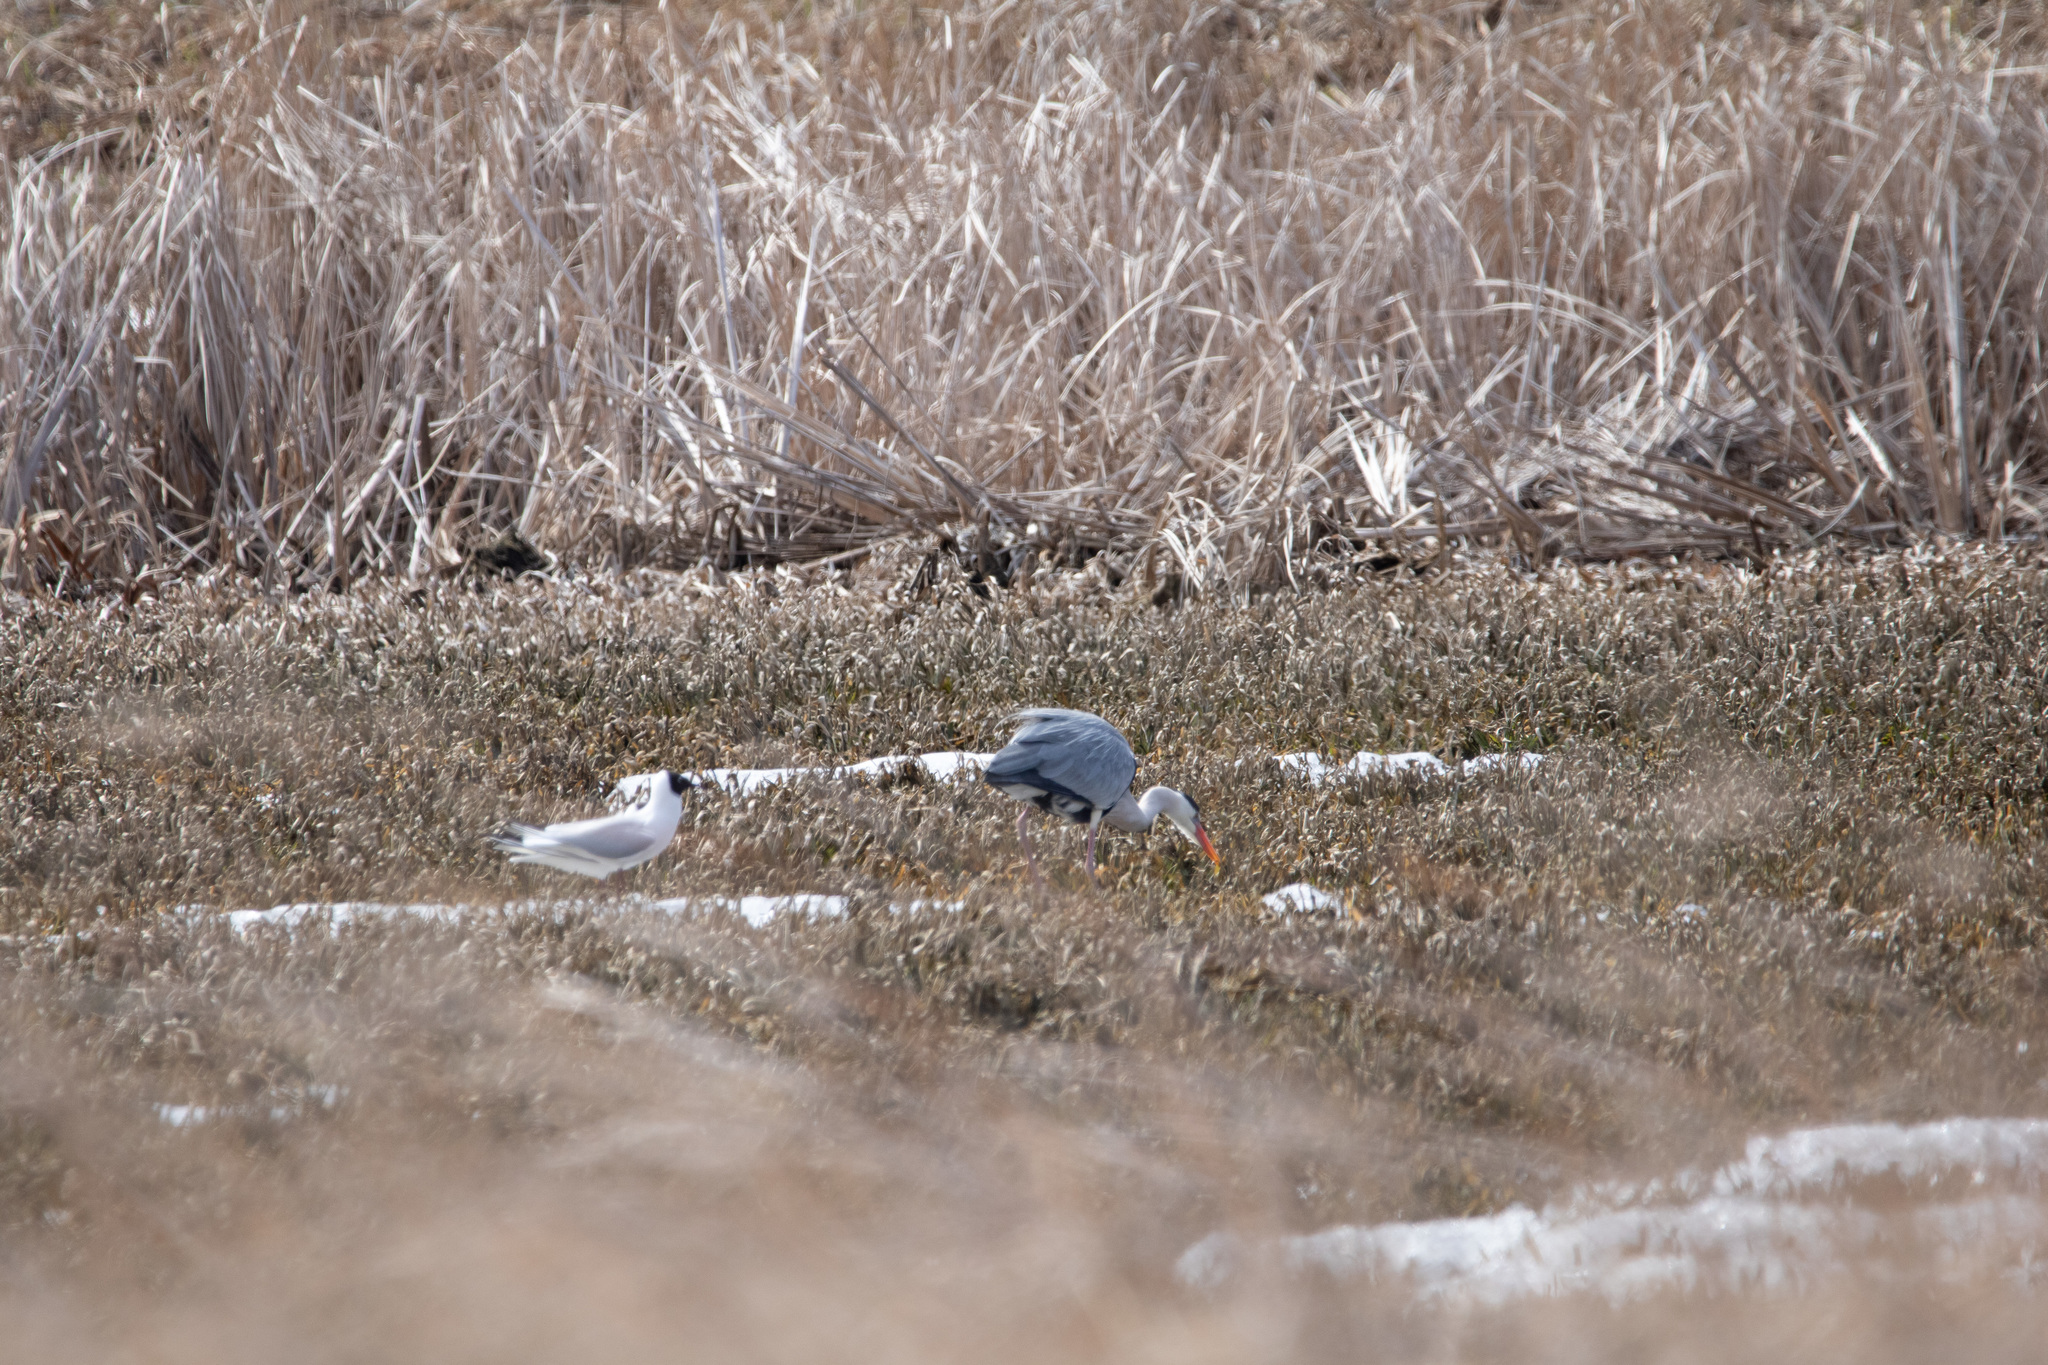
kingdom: Animalia
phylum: Chordata
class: Aves
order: Pelecaniformes
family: Ardeidae
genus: Ardea
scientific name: Ardea cinerea
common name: Grey heron
